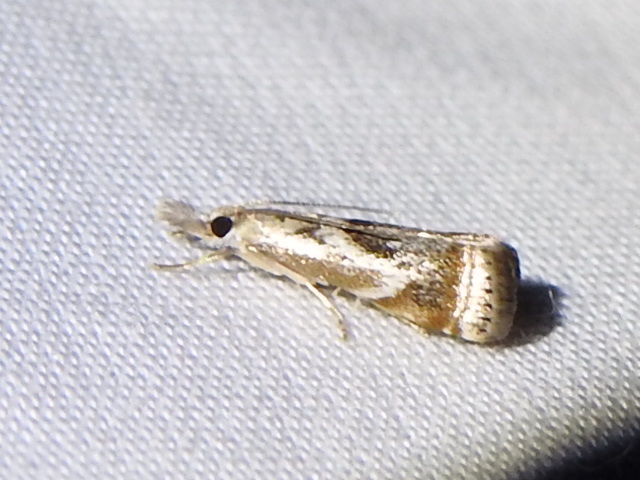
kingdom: Animalia
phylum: Arthropoda
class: Insecta
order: Lepidoptera
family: Crambidae
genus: Microcrambus
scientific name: Microcrambus elegans
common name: Elegant grass-veneer
